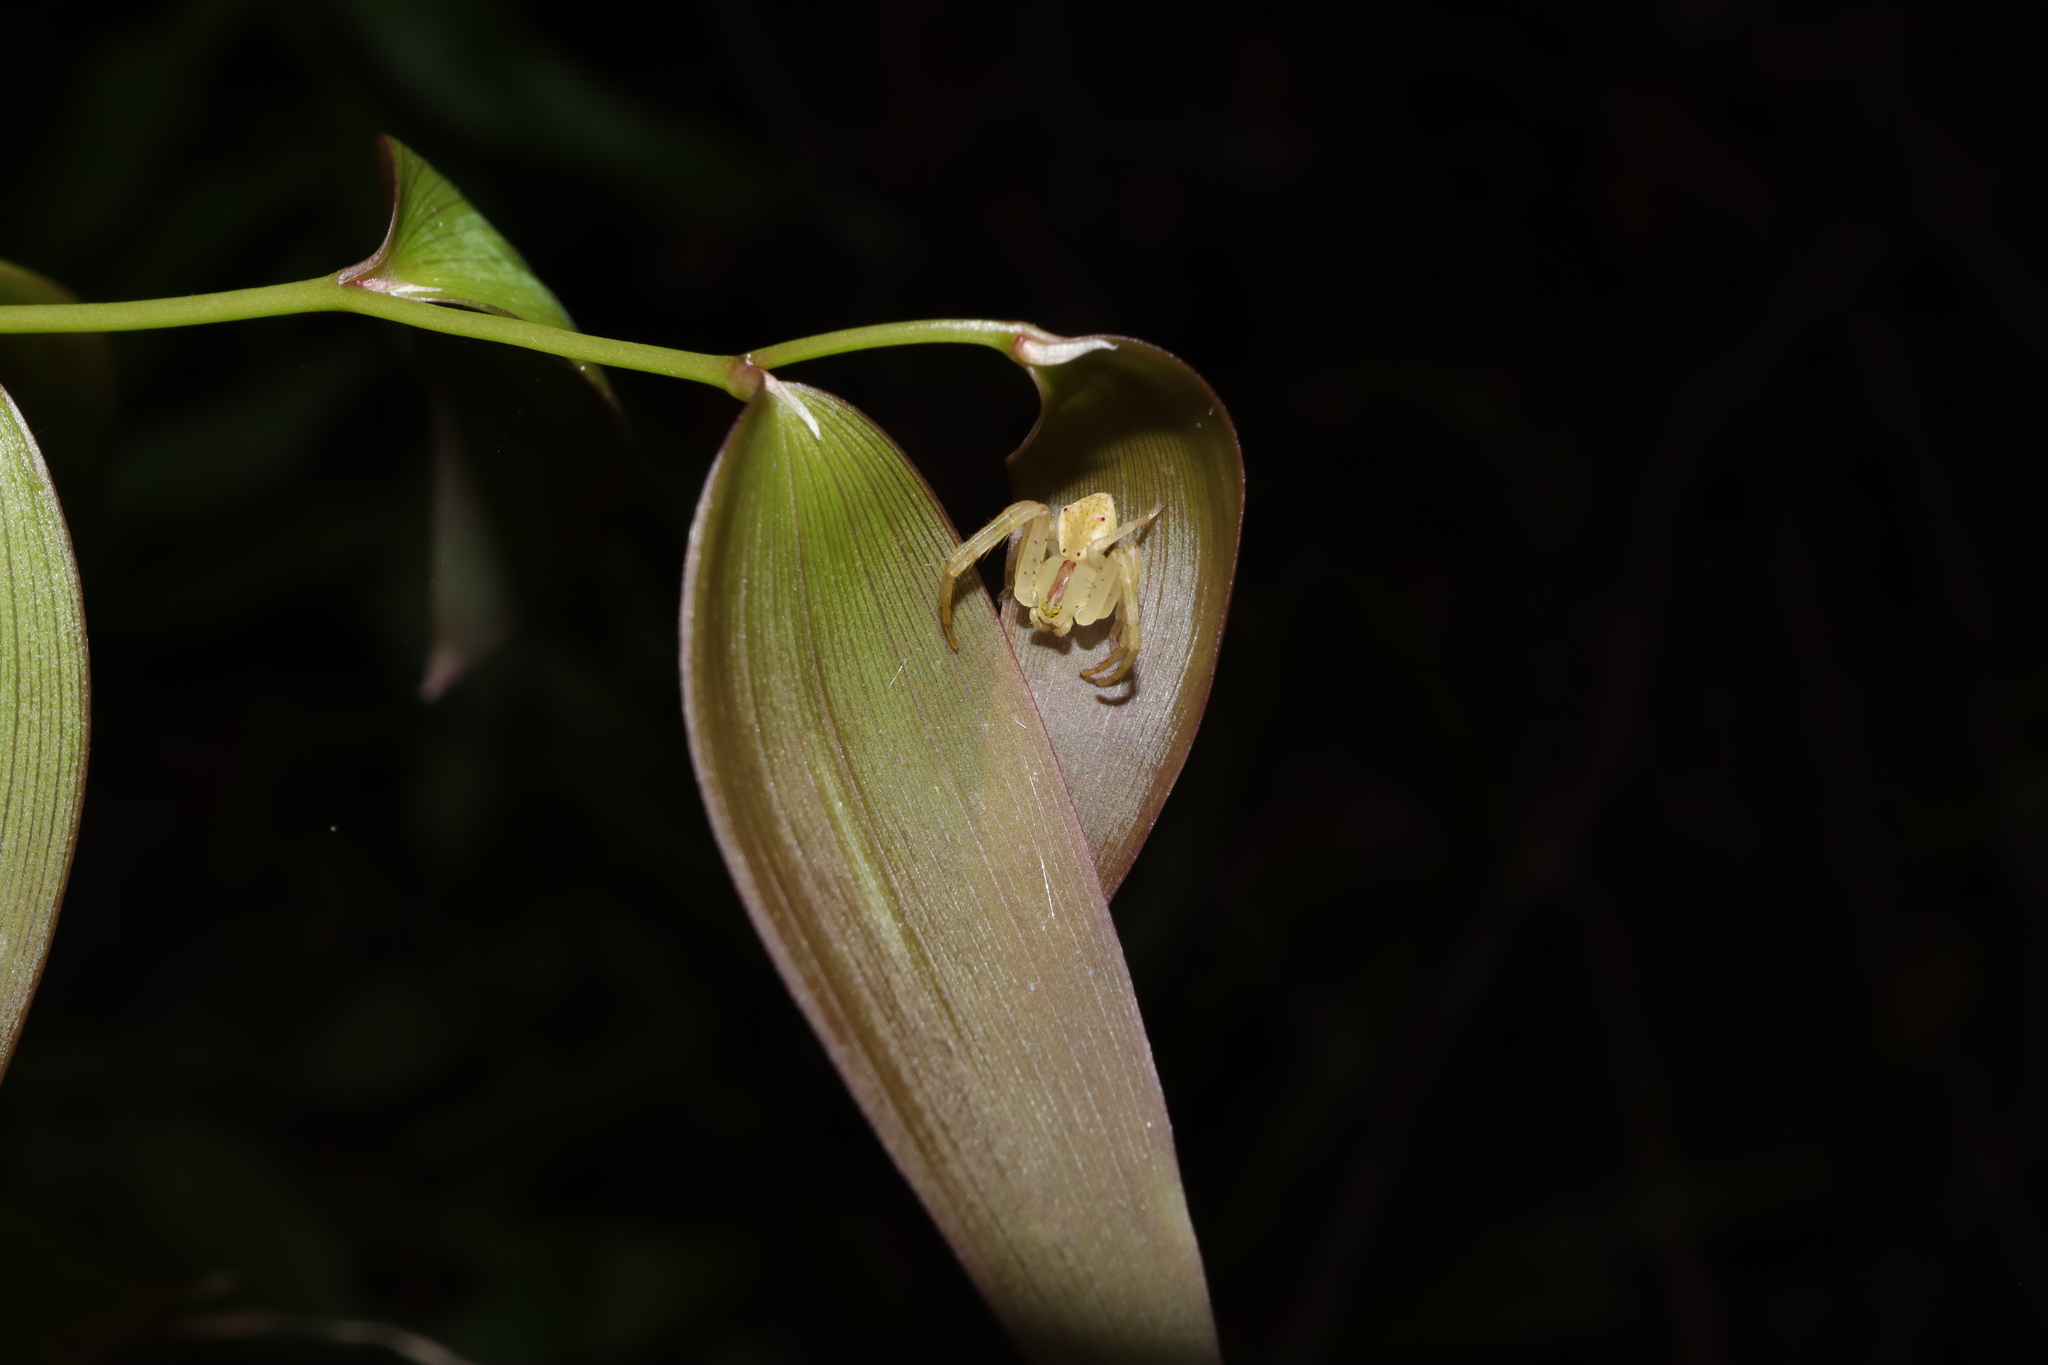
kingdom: Animalia
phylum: Arthropoda
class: Arachnida
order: Araneae
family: Thomisidae
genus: Sidymella
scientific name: Sidymella rubrosignata
